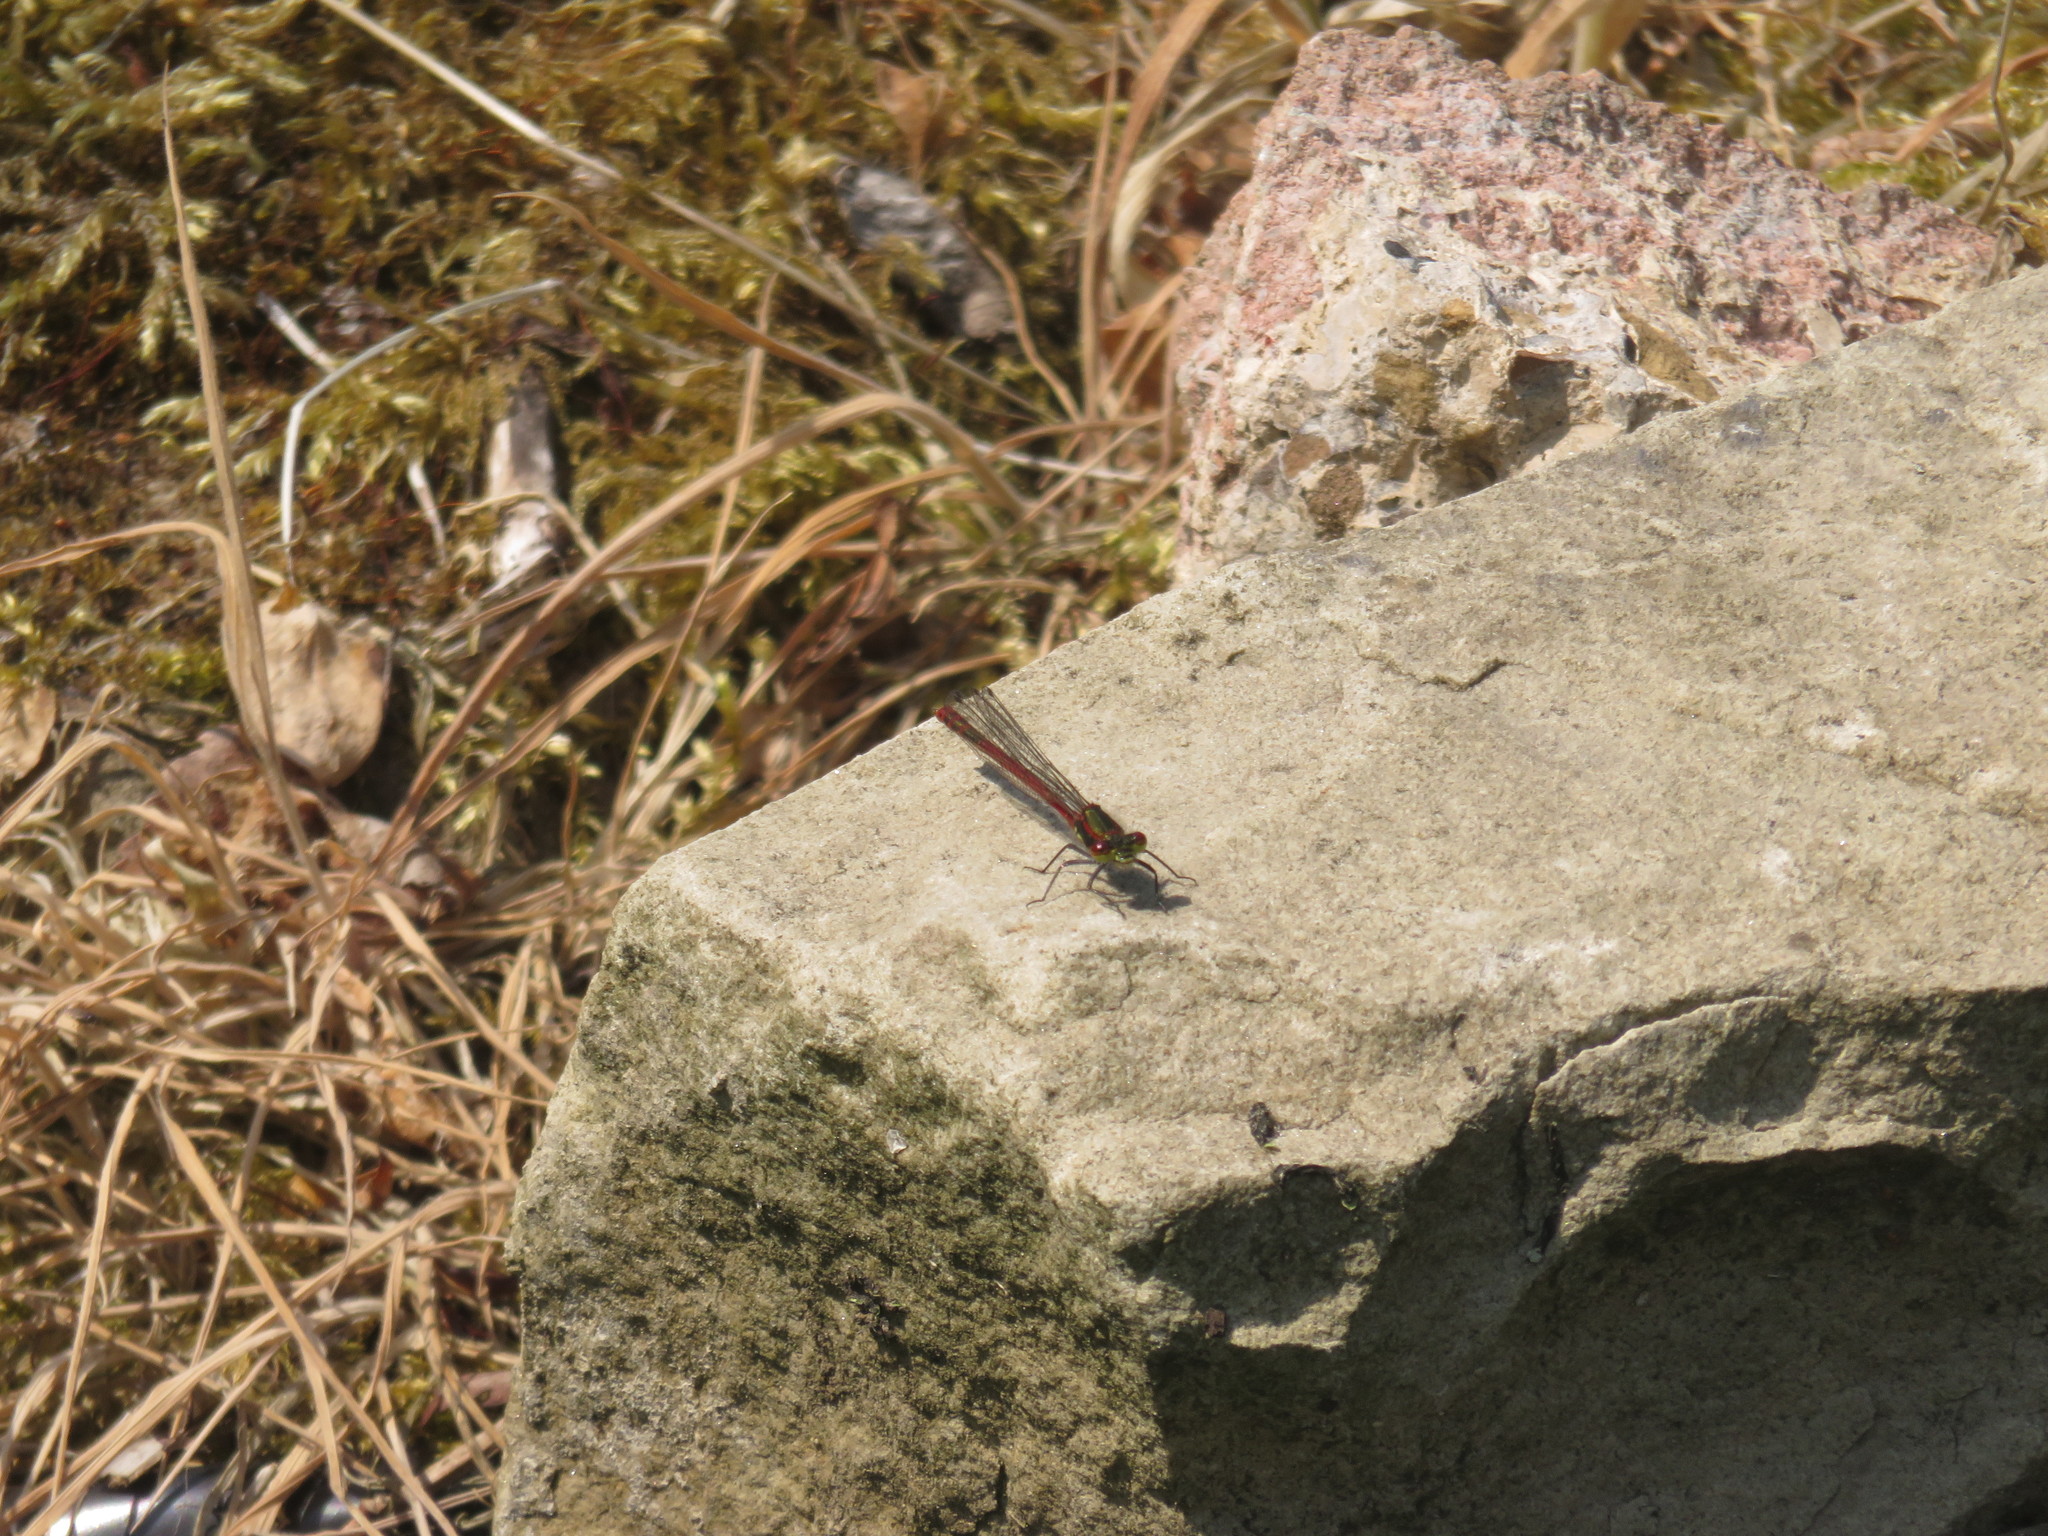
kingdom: Animalia
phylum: Arthropoda
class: Insecta
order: Odonata
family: Coenagrionidae
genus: Pyrrhosoma
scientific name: Pyrrhosoma nymphula
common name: Large red damsel
